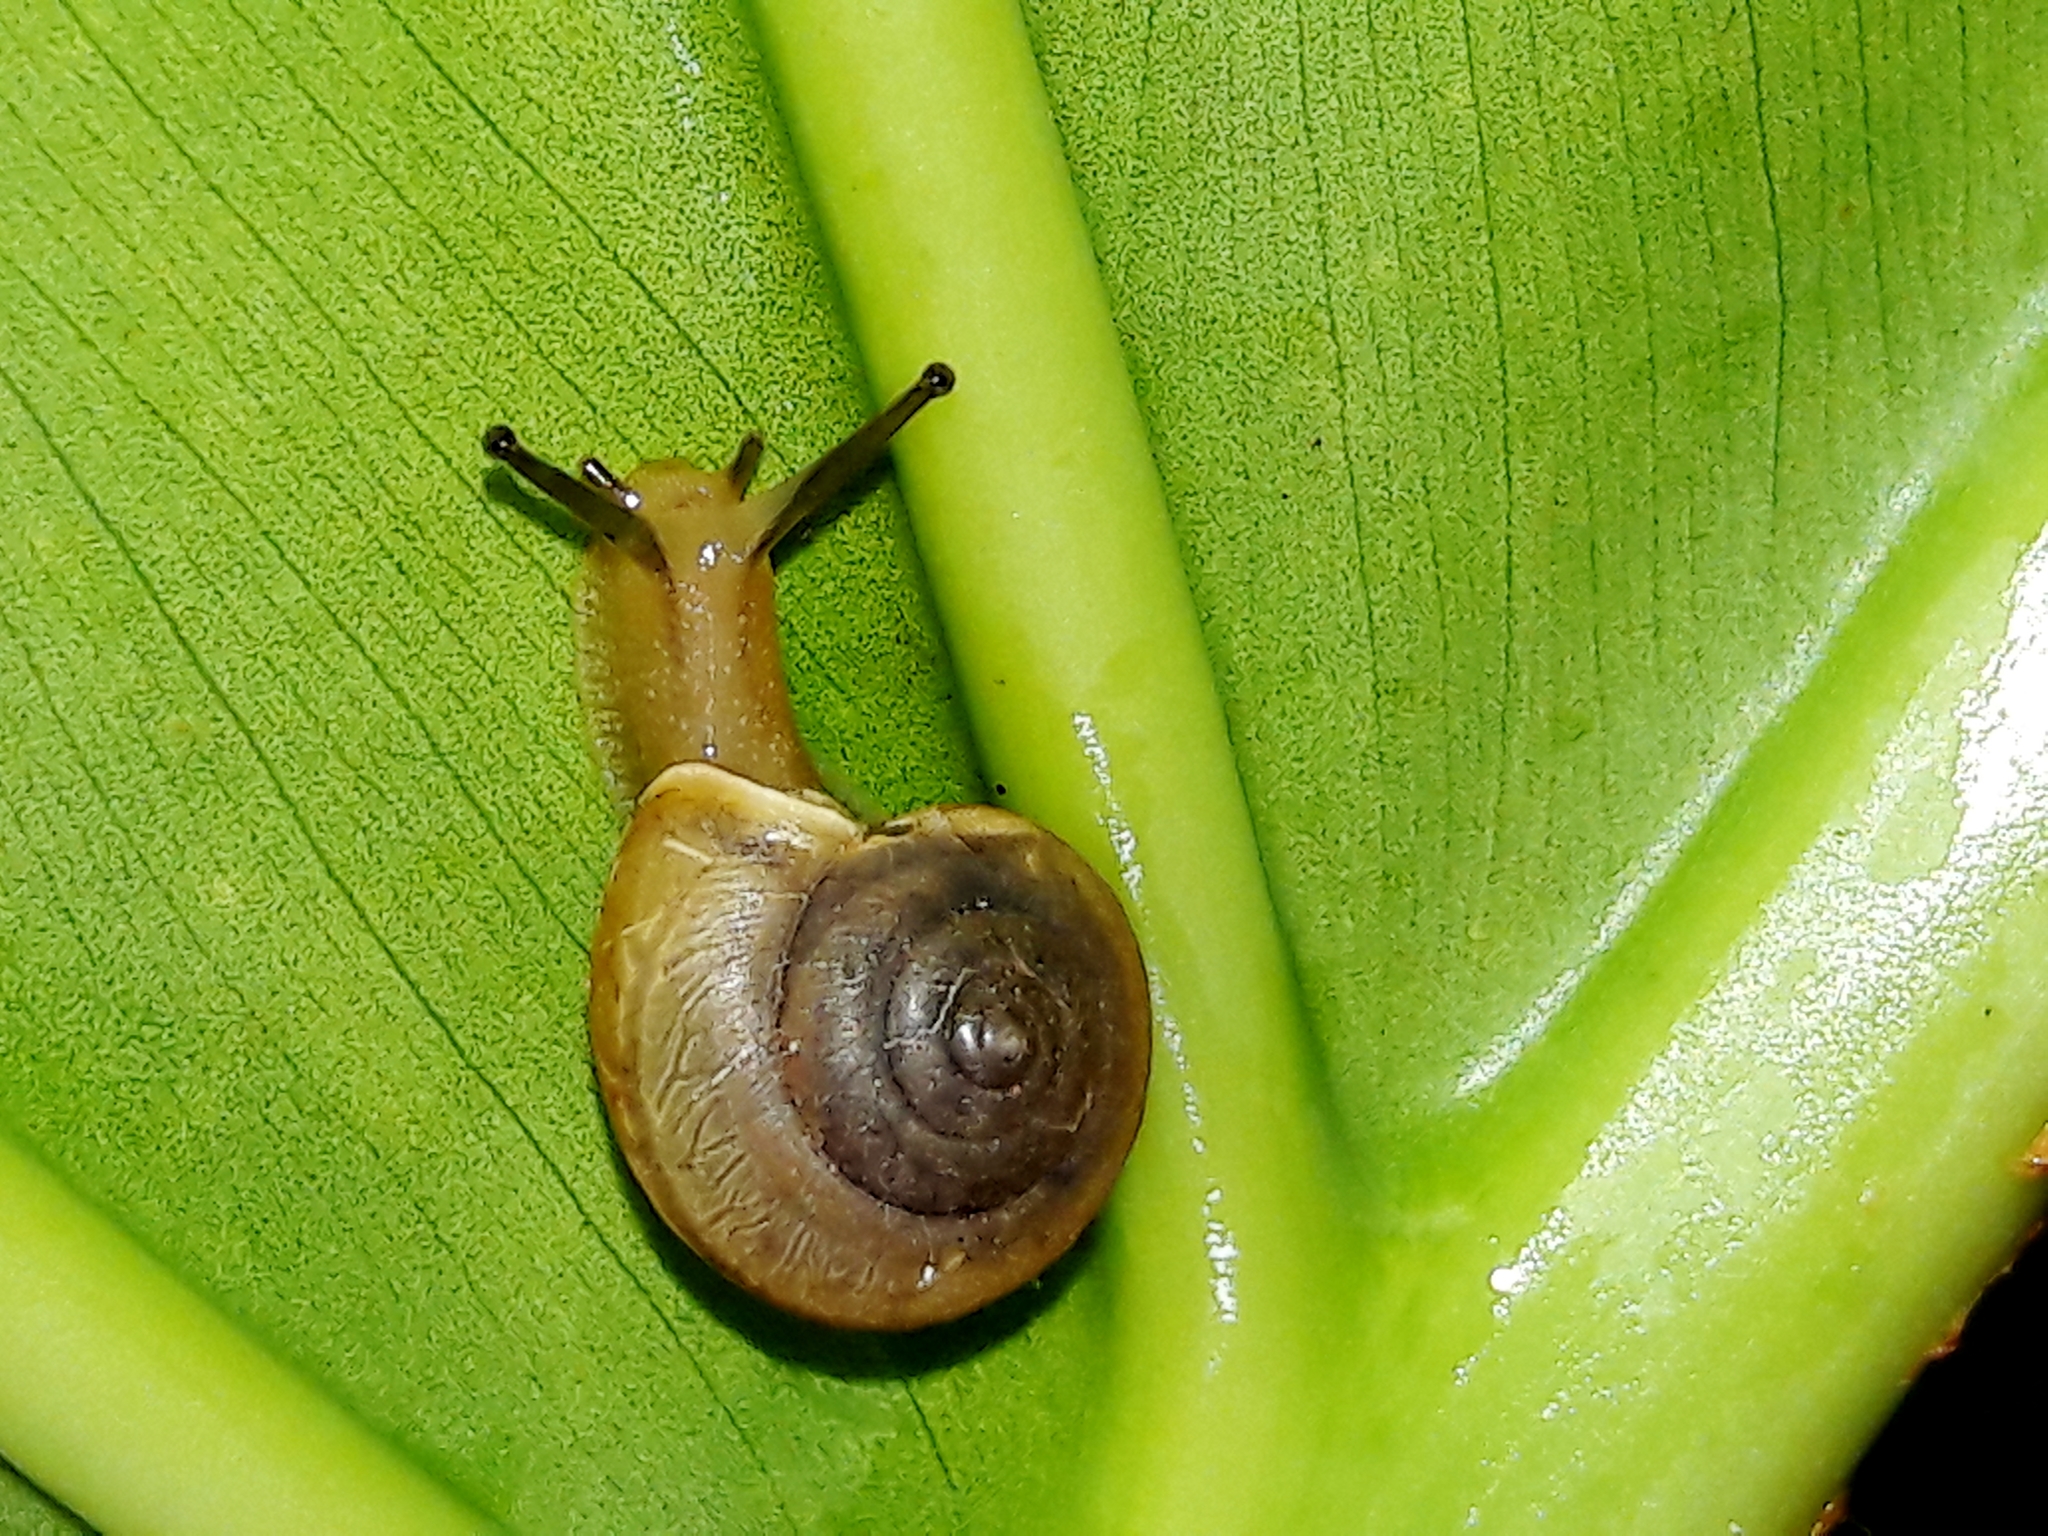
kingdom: Animalia
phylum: Mollusca
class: Gastropoda
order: Stylommatophora
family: Camaenidae
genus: Bradybaena
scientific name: Bradybaena similaris
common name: Asian trampsnail
